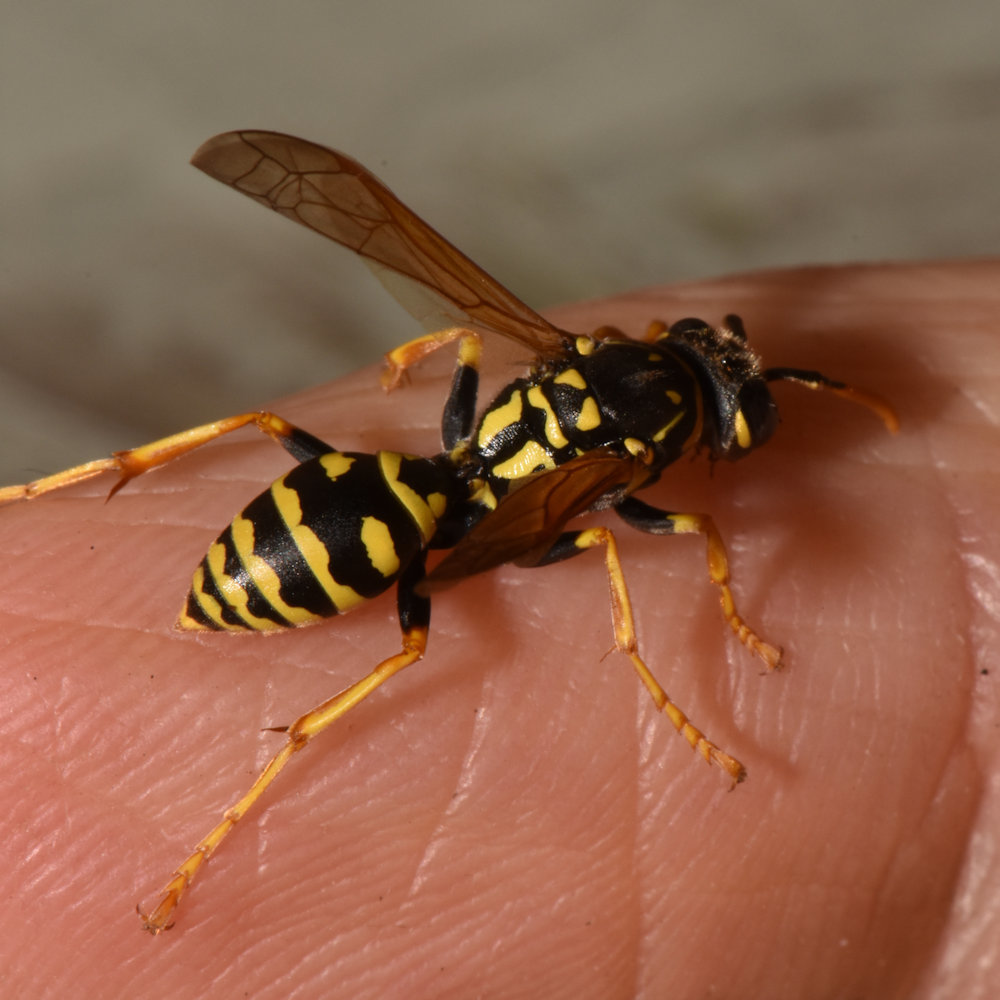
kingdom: Animalia
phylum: Arthropoda
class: Insecta
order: Hymenoptera
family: Eumenidae
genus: Polistes
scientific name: Polistes dominula
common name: Paper wasp
